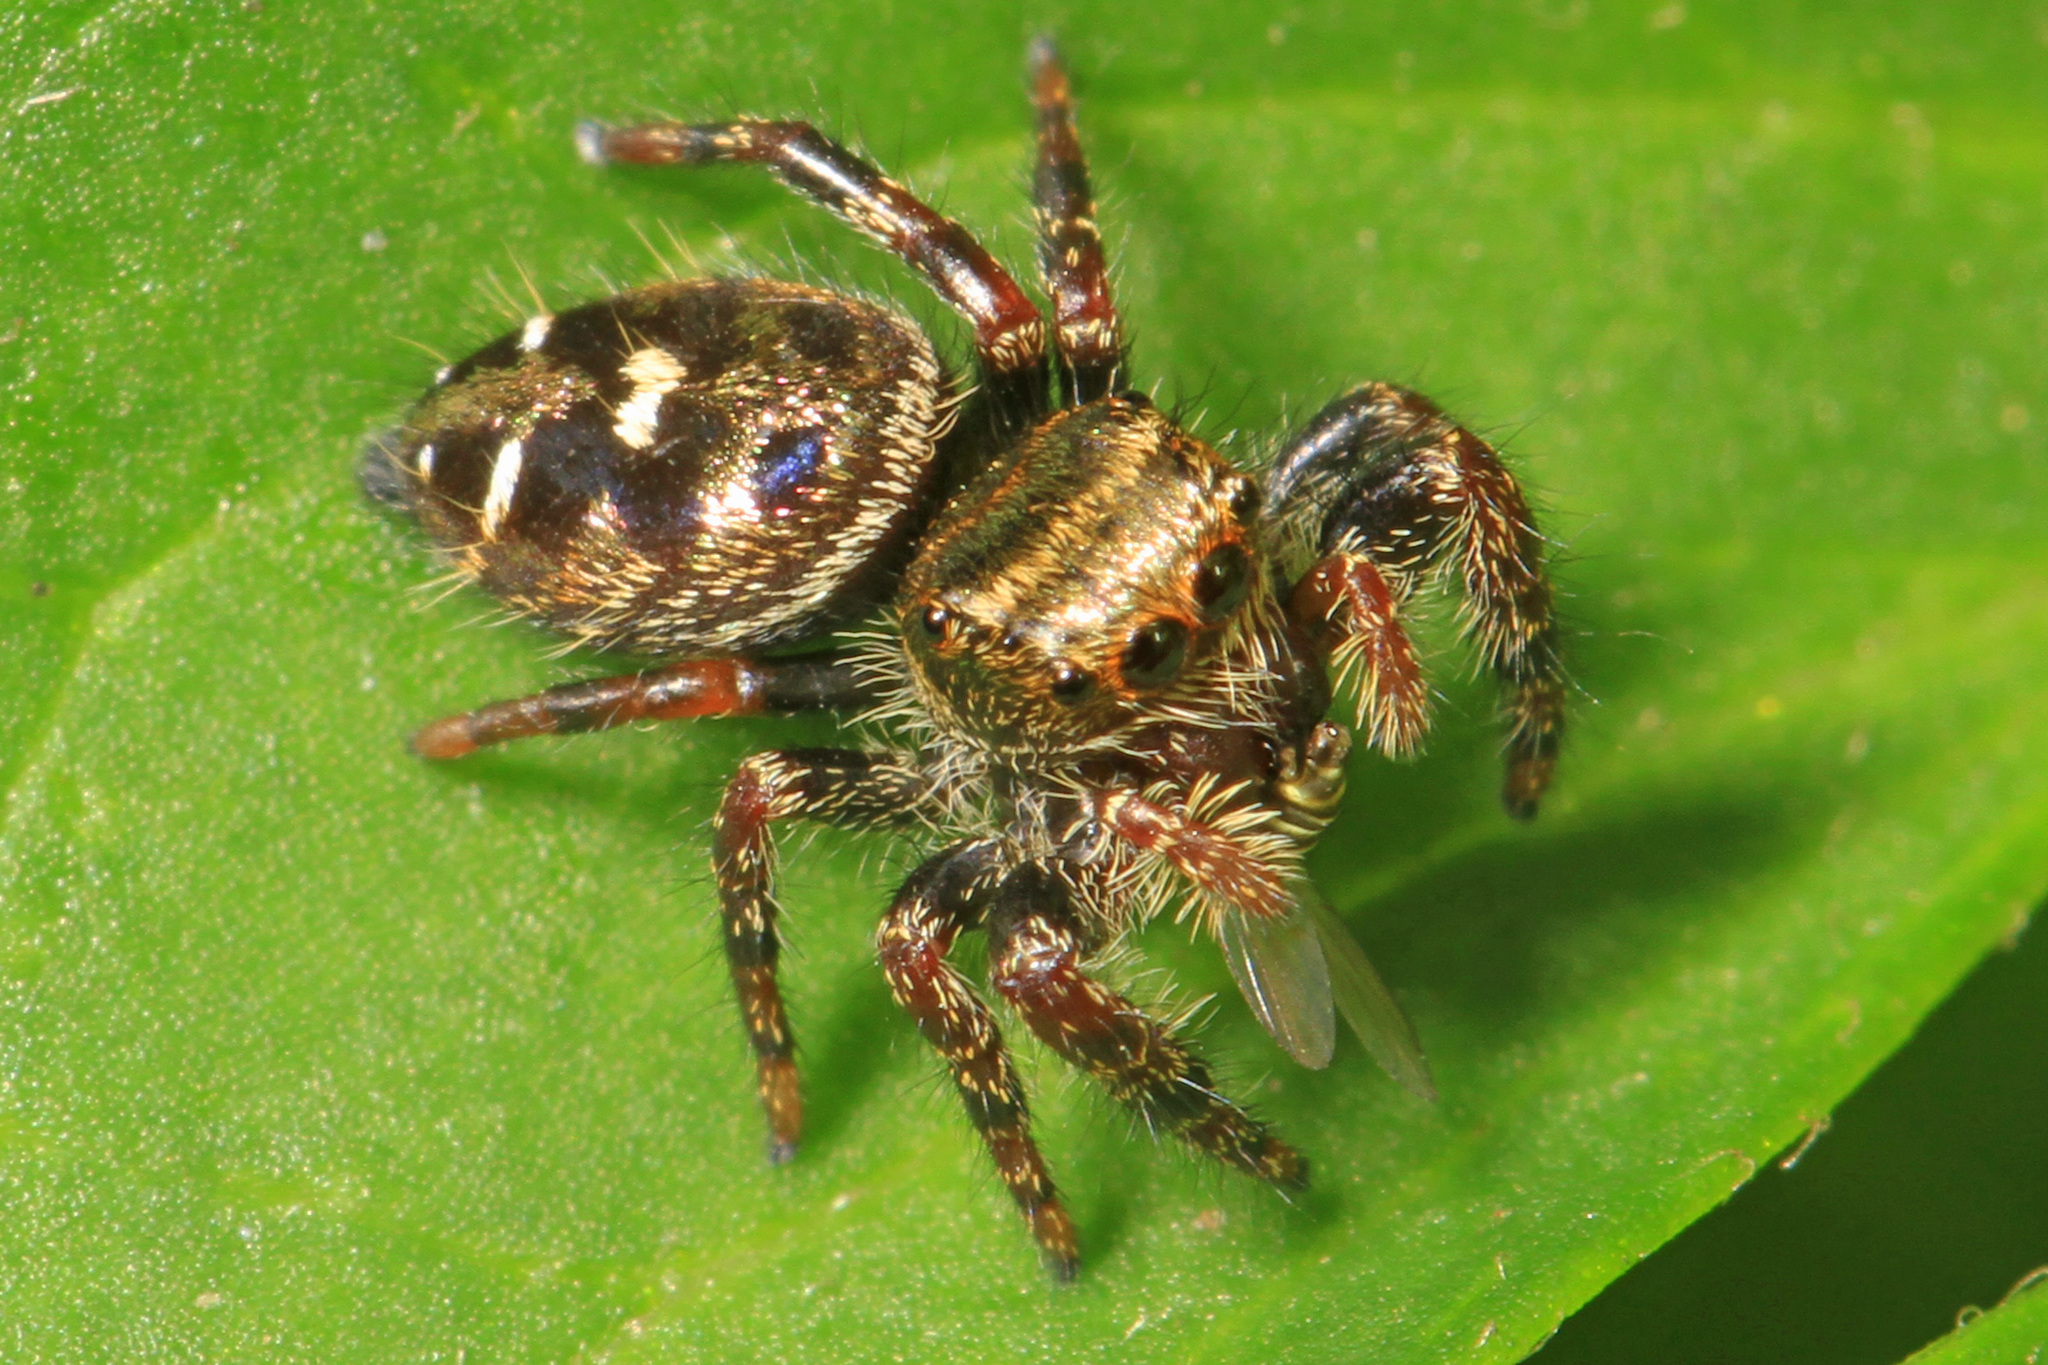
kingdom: Animalia
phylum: Arthropoda
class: Arachnida
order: Araneae
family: Salticidae
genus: Phidippus
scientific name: Phidippus audax
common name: Bold jumper
